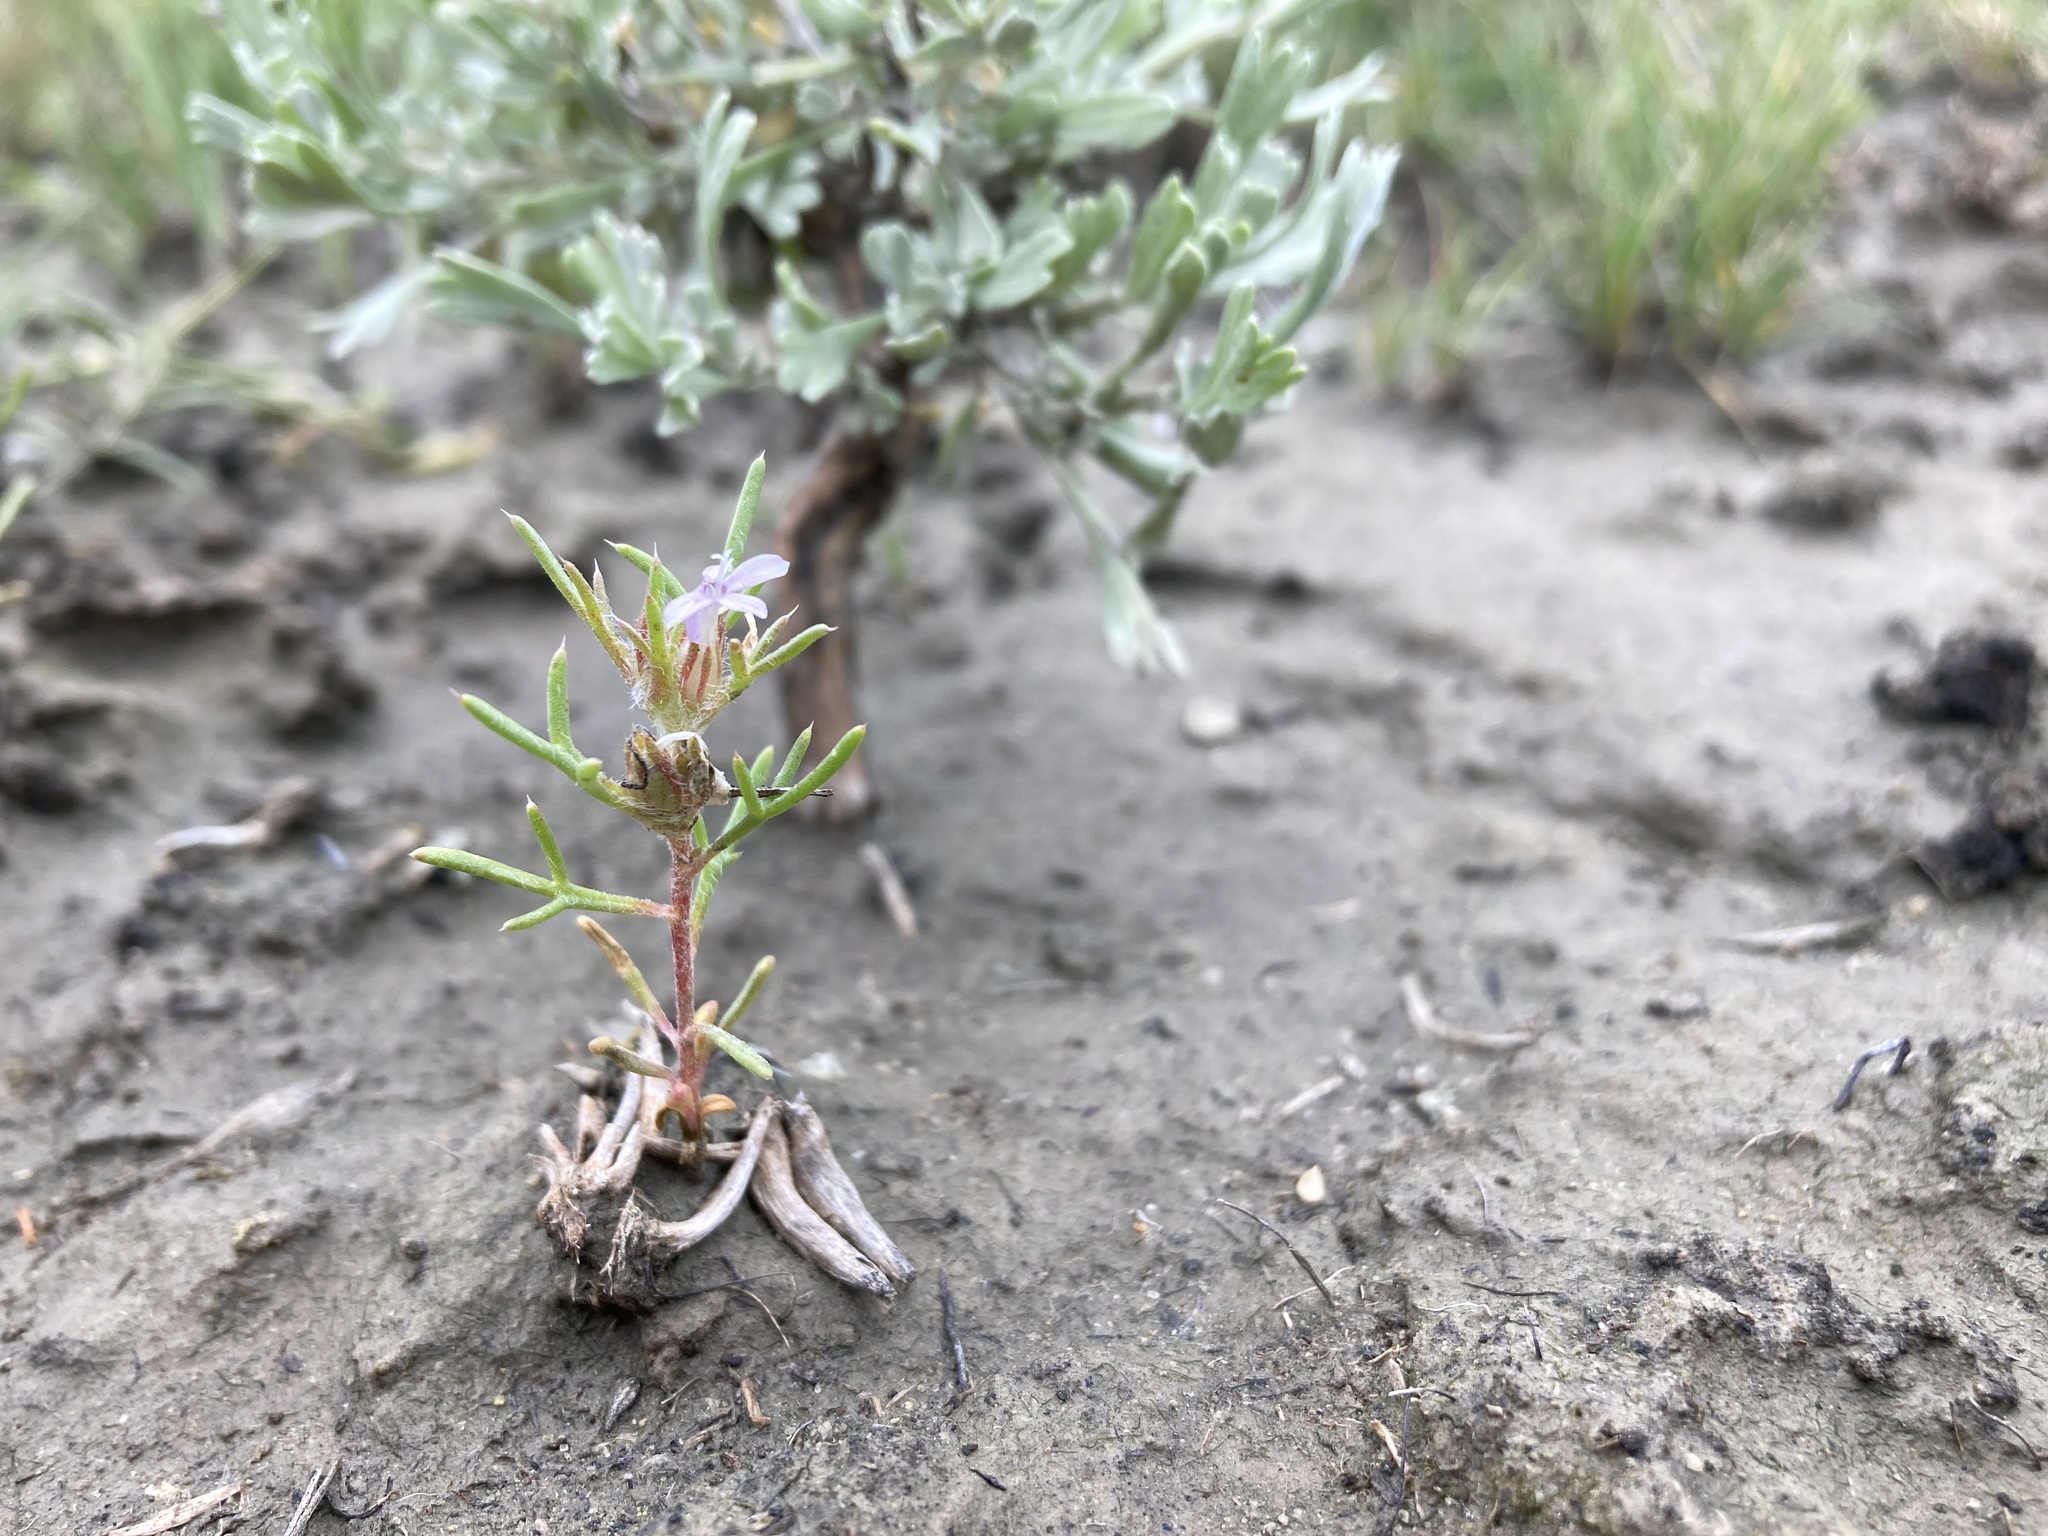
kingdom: Plantae
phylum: Tracheophyta
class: Magnoliopsida
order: Ericales
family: Polemoniaceae
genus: Ipomopsis
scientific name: Ipomopsis pumila
